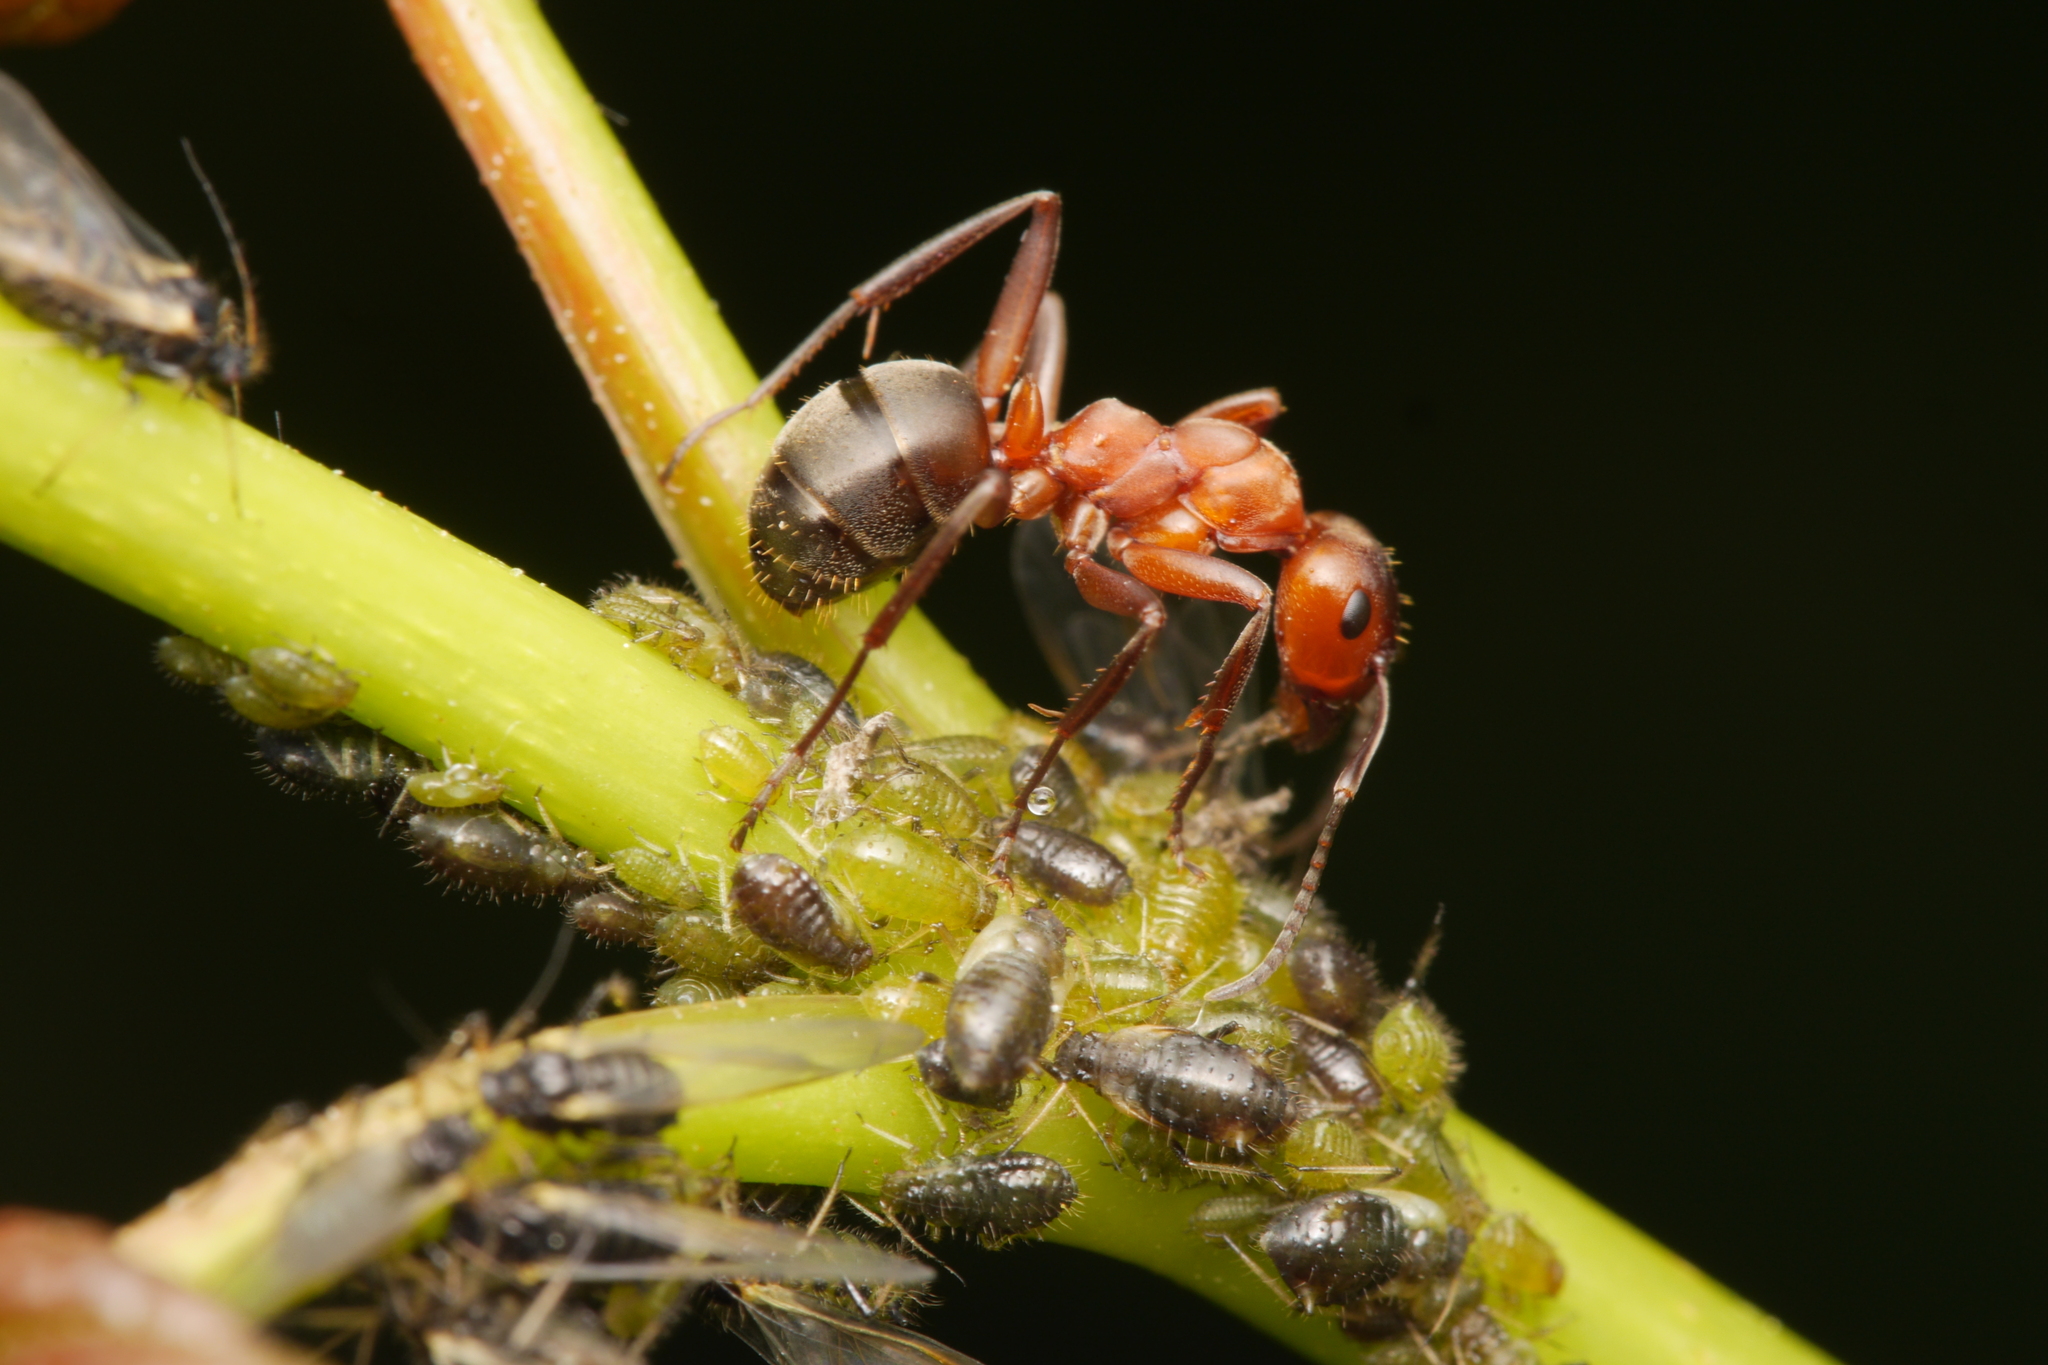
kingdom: Animalia
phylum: Arthropoda
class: Insecta
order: Hymenoptera
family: Formicidae
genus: Formica
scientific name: Formica sanguinea
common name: Blood-red ant
